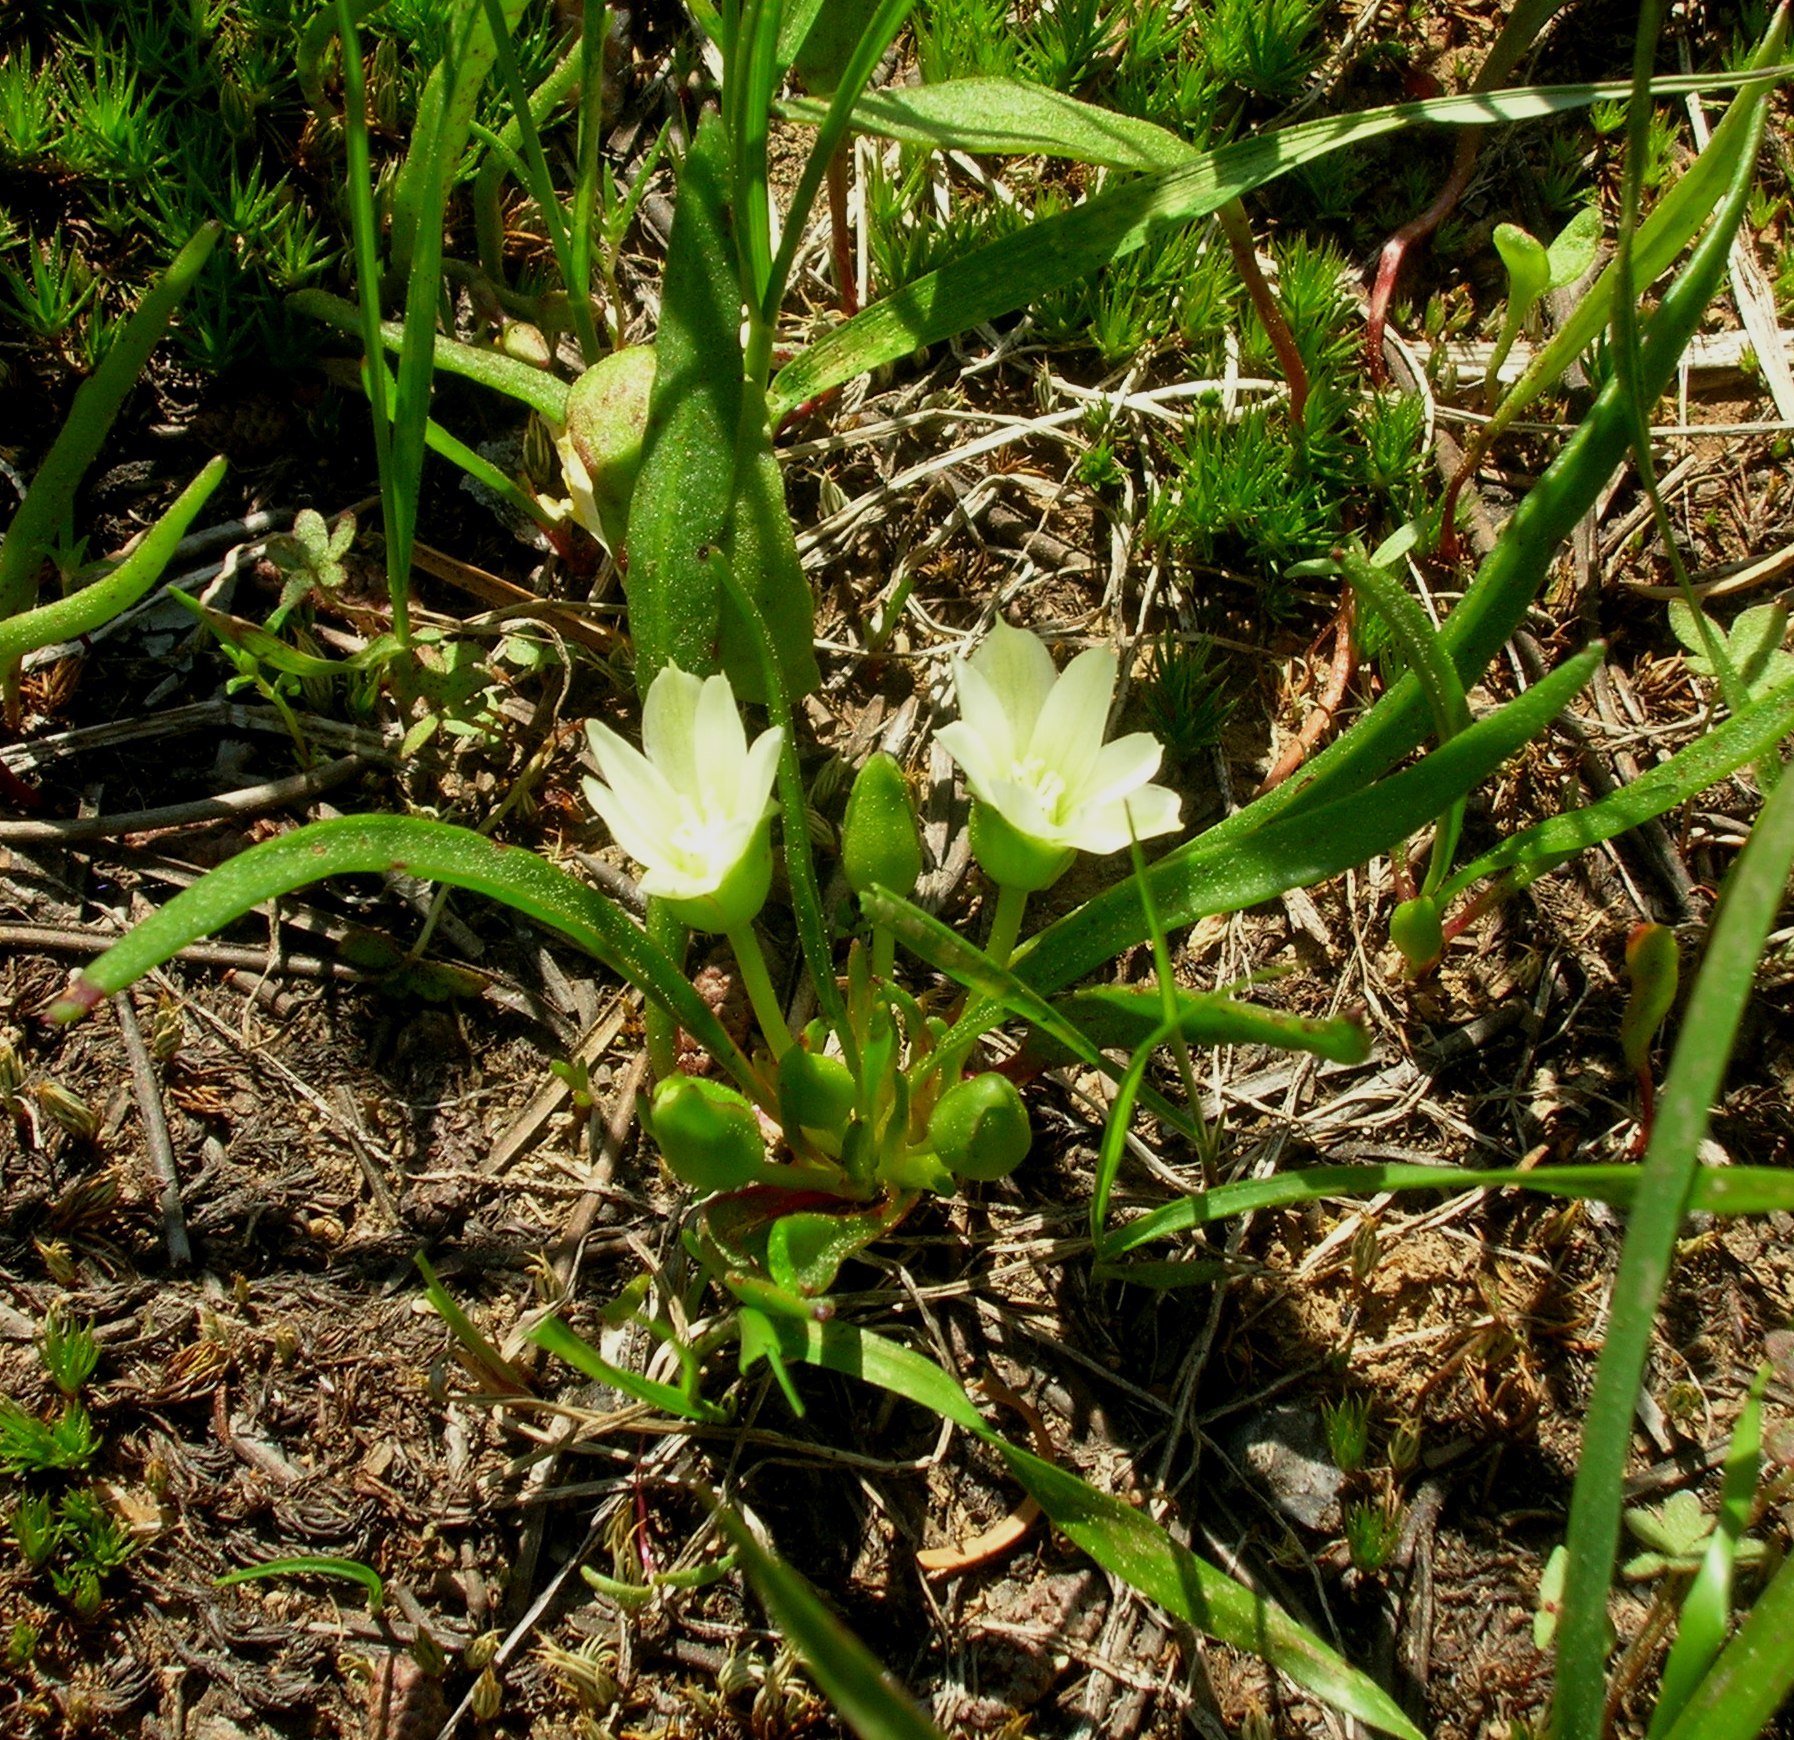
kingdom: Plantae
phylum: Tracheophyta
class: Magnoliopsida
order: Caryophyllales
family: Montiaceae
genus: Lewisia
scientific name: Lewisia nevadensis
